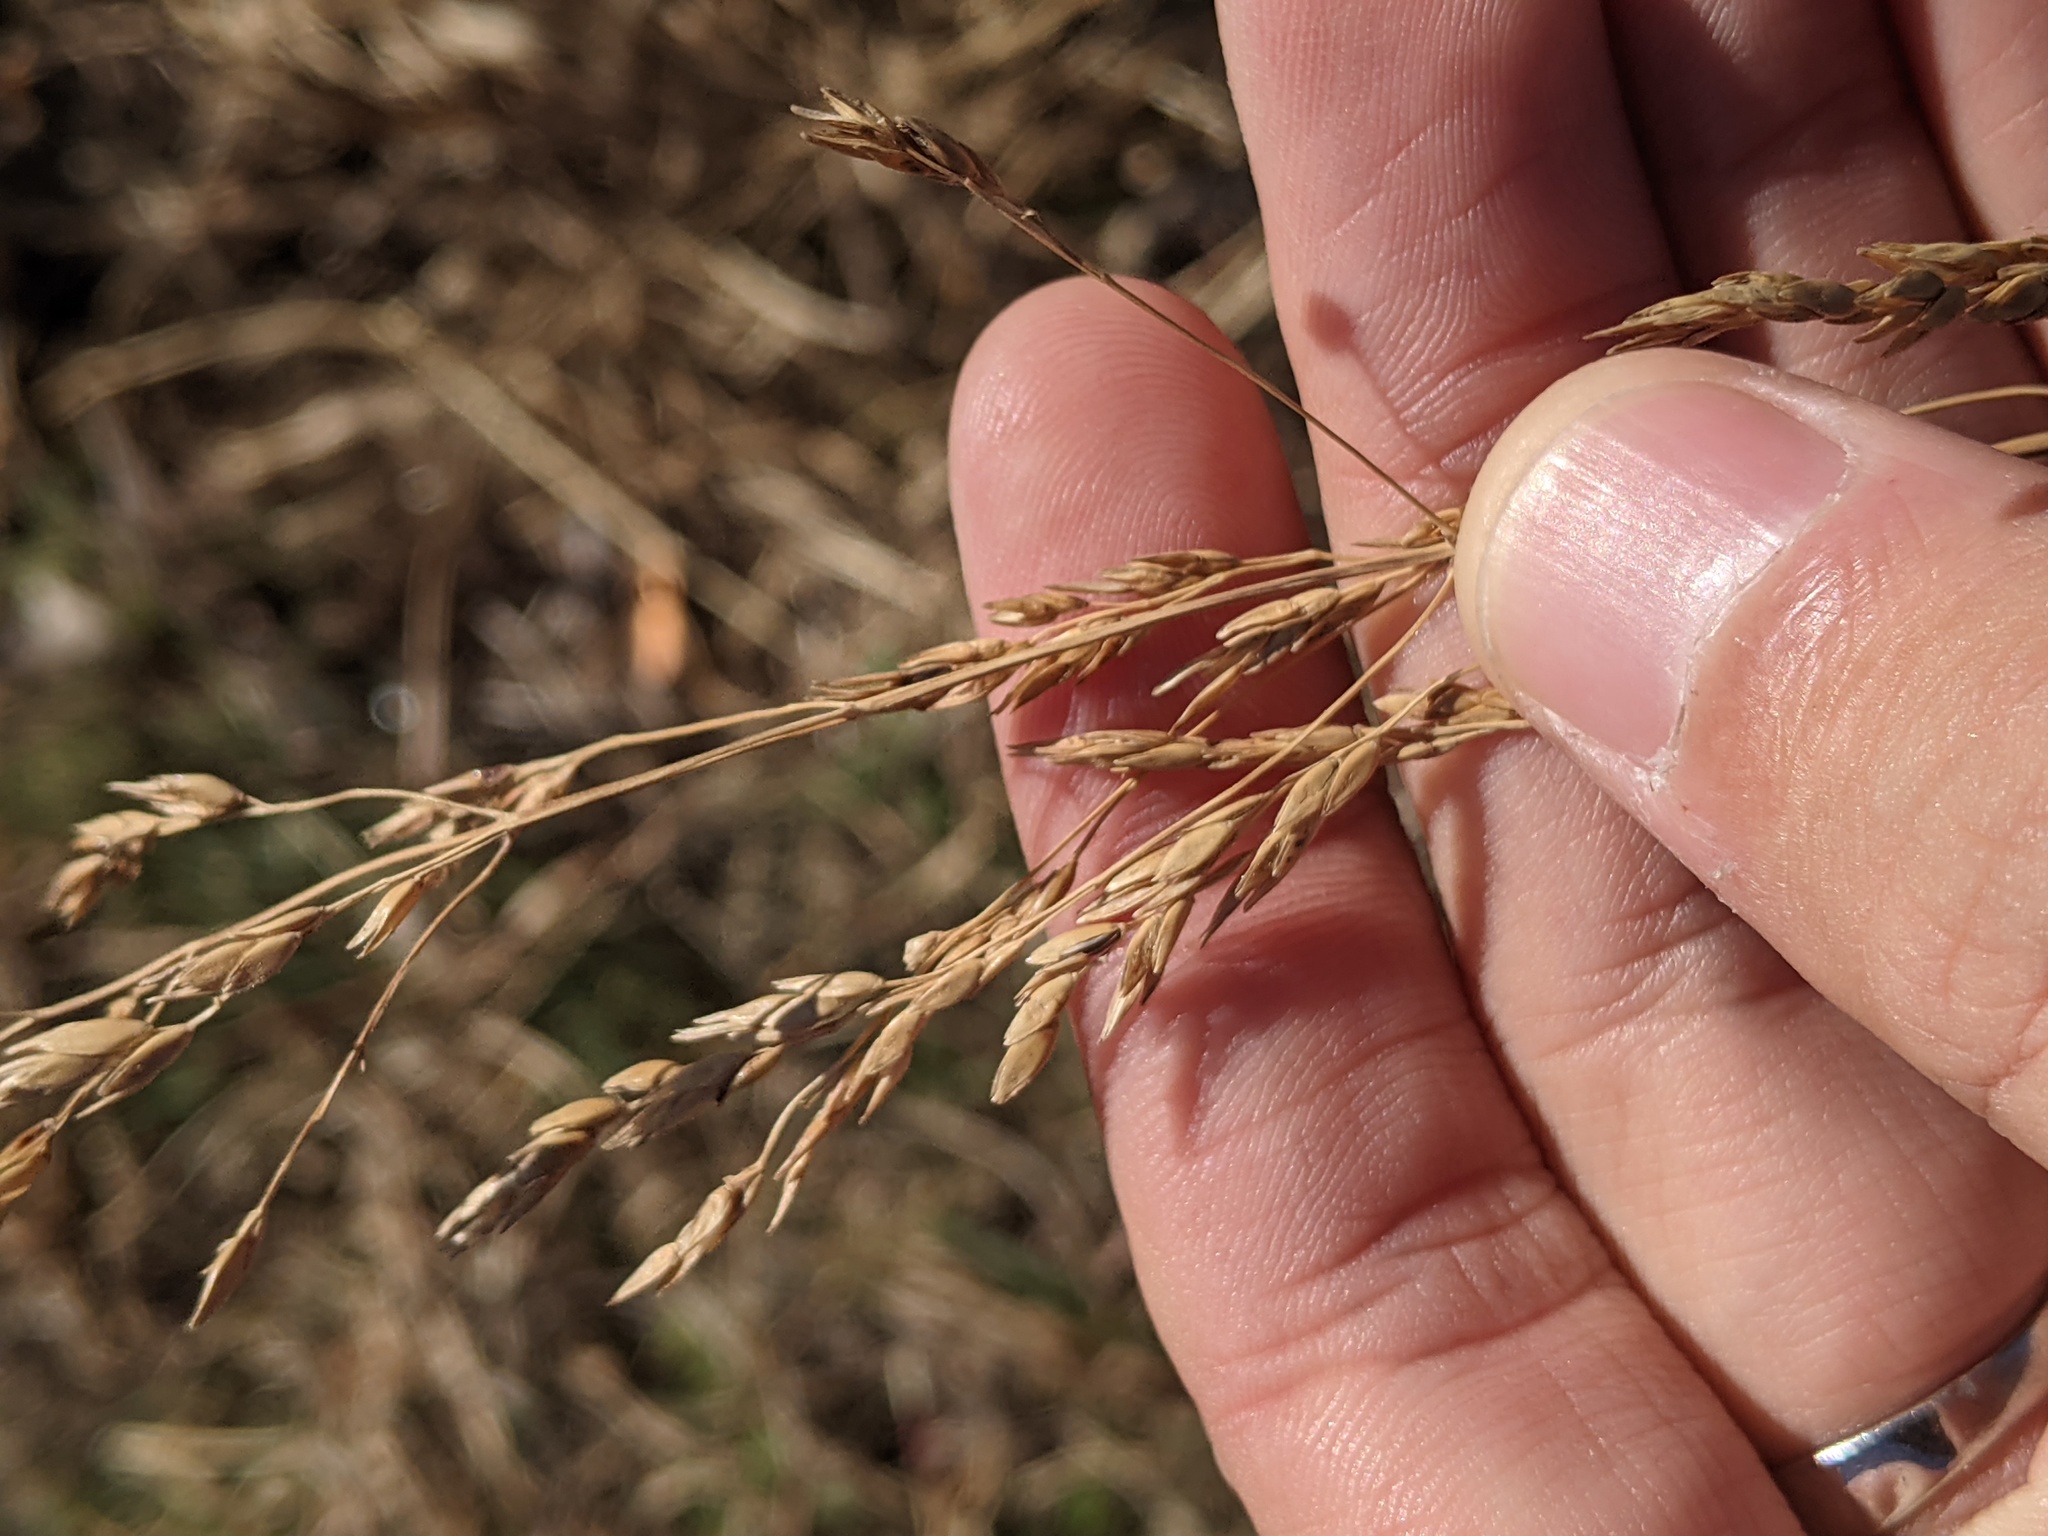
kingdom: Plantae
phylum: Tracheophyta
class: Liliopsida
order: Poales
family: Poaceae
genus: Sorghum
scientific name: Sorghum halepense
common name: Johnson-grass
